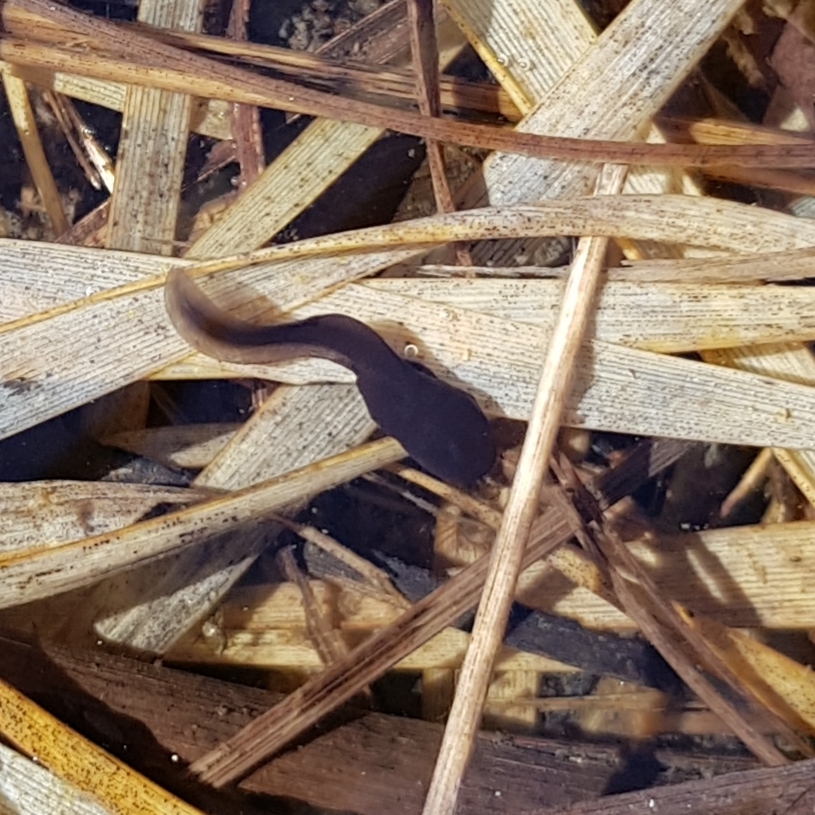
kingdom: Animalia
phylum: Chordata
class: Amphibia
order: Anura
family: Bufonidae
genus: Bufo
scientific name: Bufo bufo
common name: Common toad
